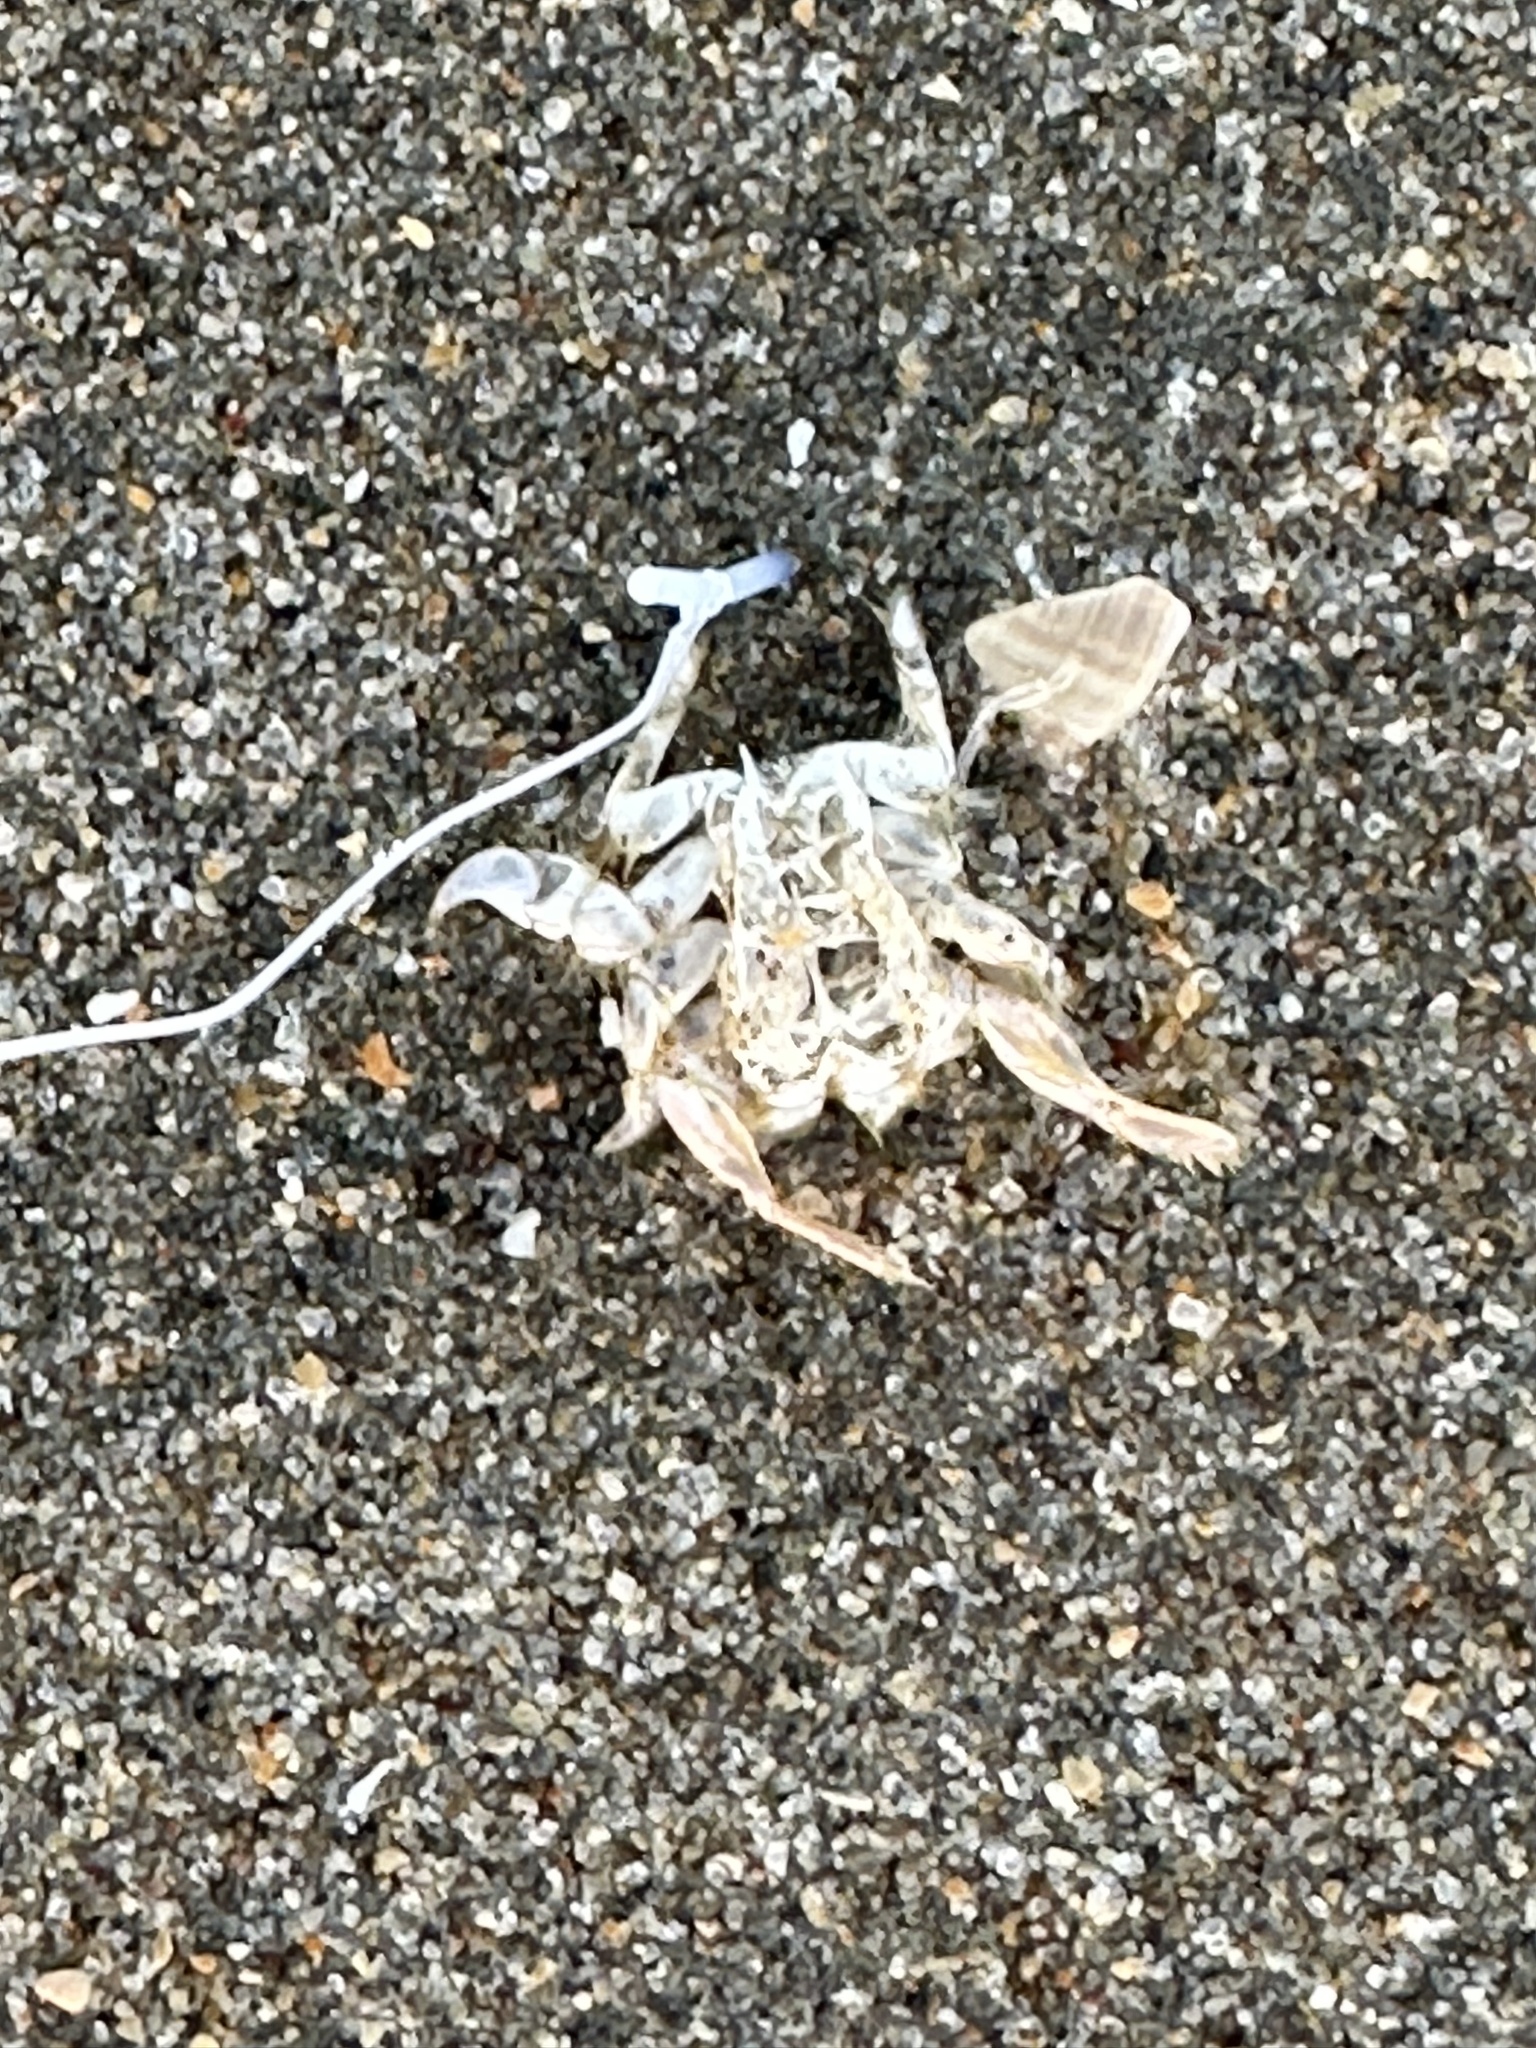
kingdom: Animalia
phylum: Arthropoda
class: Malacostraca
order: Decapoda
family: Hippidae
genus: Emerita
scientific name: Emerita analoga
